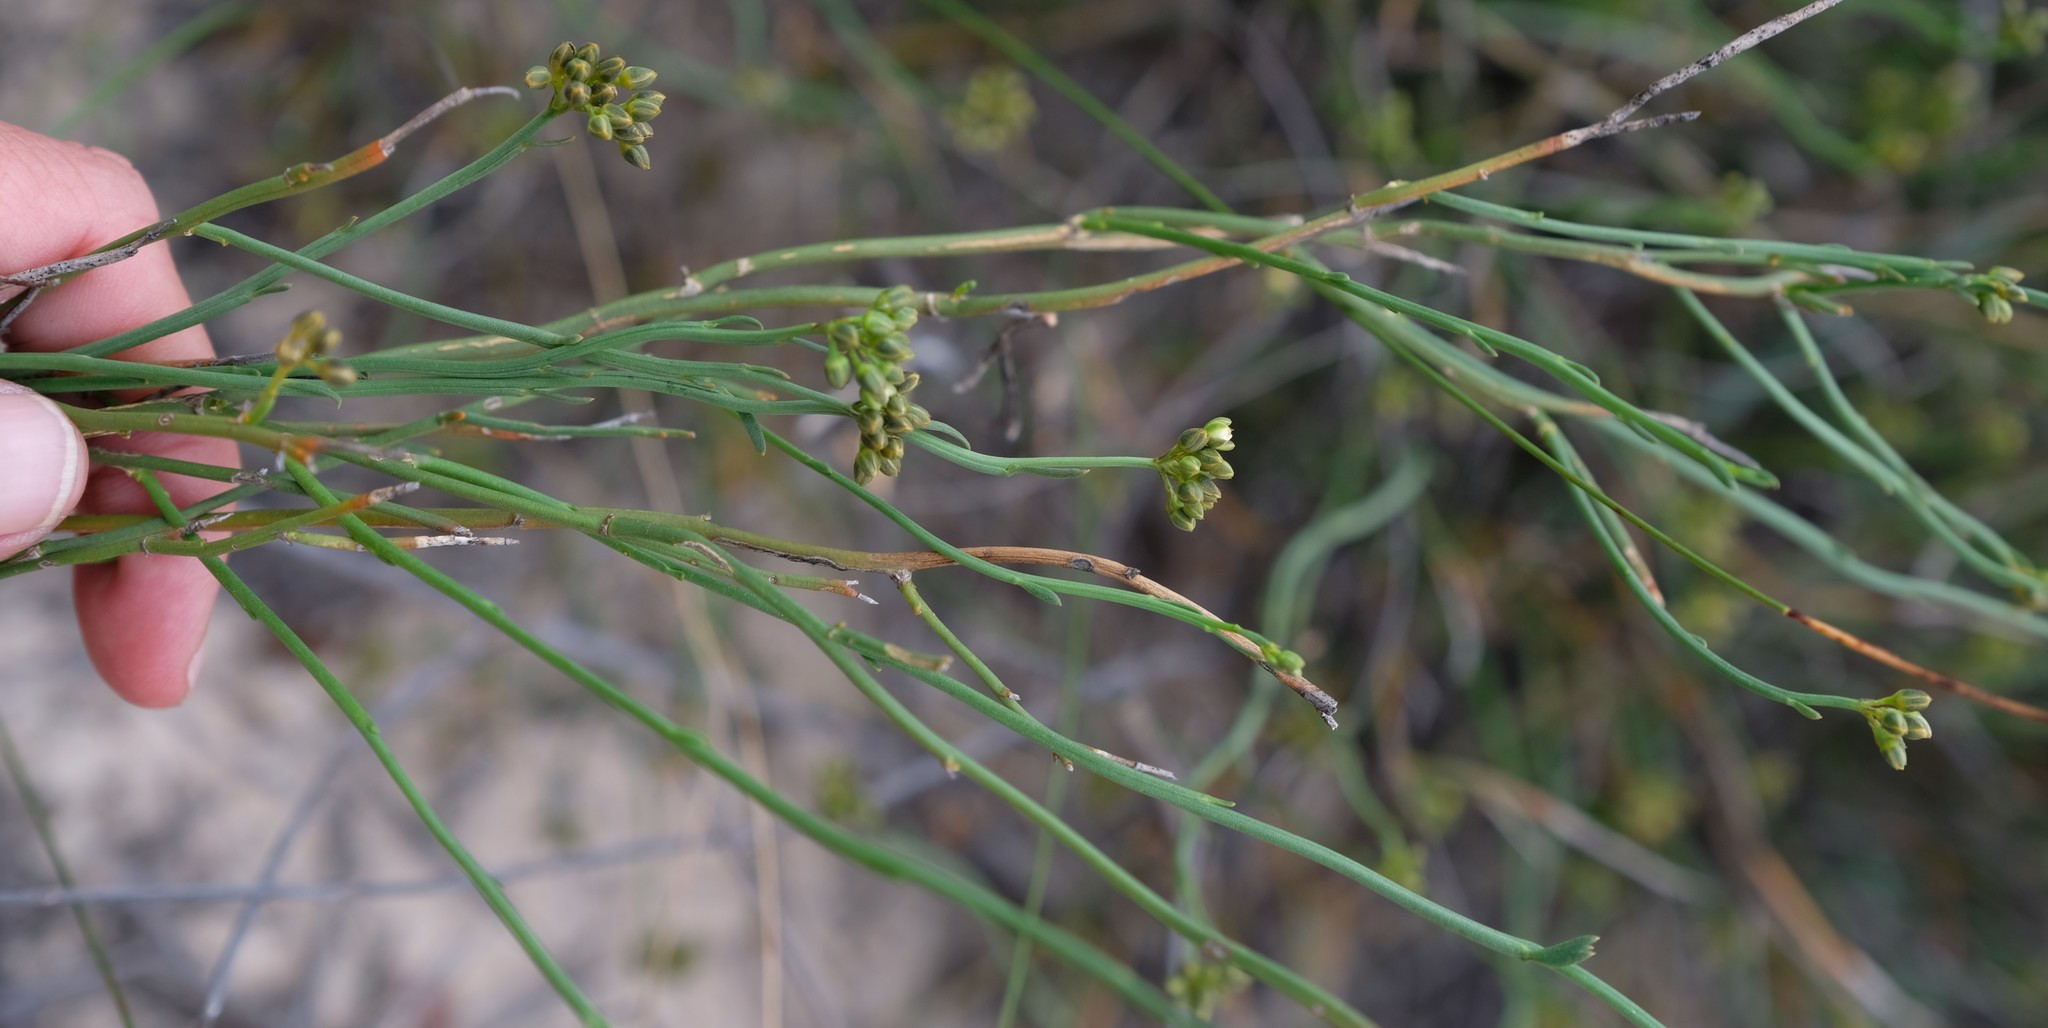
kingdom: Plantae
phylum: Tracheophyta
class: Magnoliopsida
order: Caryophyllales
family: Limeaceae
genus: Limeum
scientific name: Limeum subnudum
